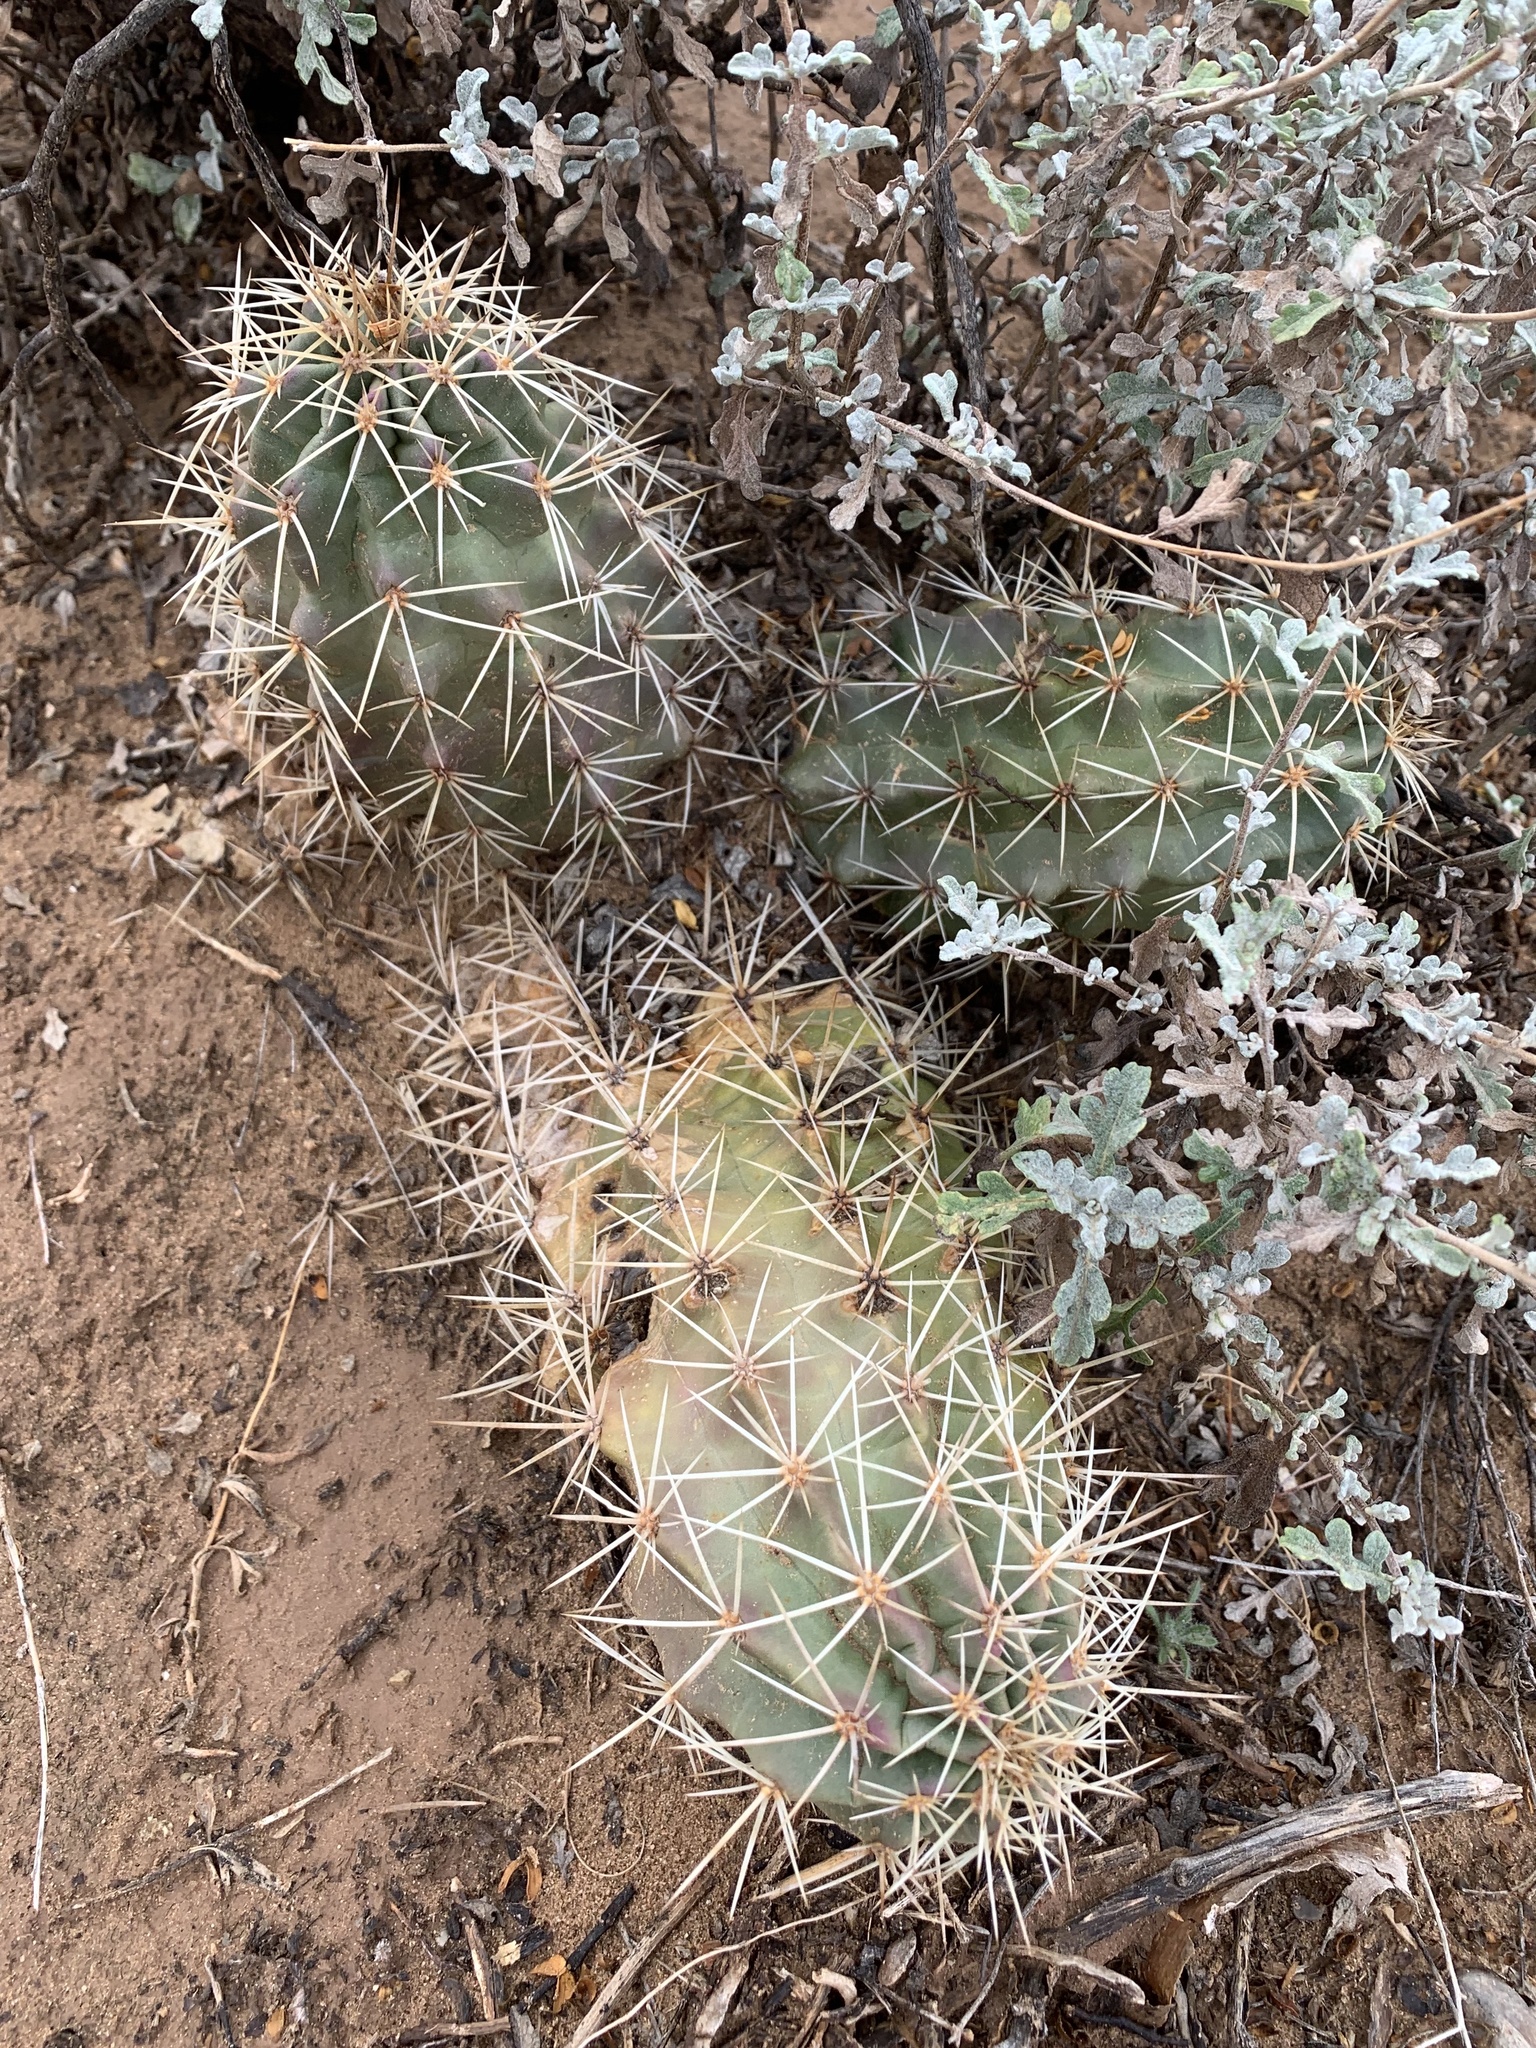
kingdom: Plantae
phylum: Tracheophyta
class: Magnoliopsida
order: Caryophyllales
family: Cactaceae
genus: Echinocereus
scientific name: Echinocereus coccineus
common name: Scarlet hedgehog cactus
